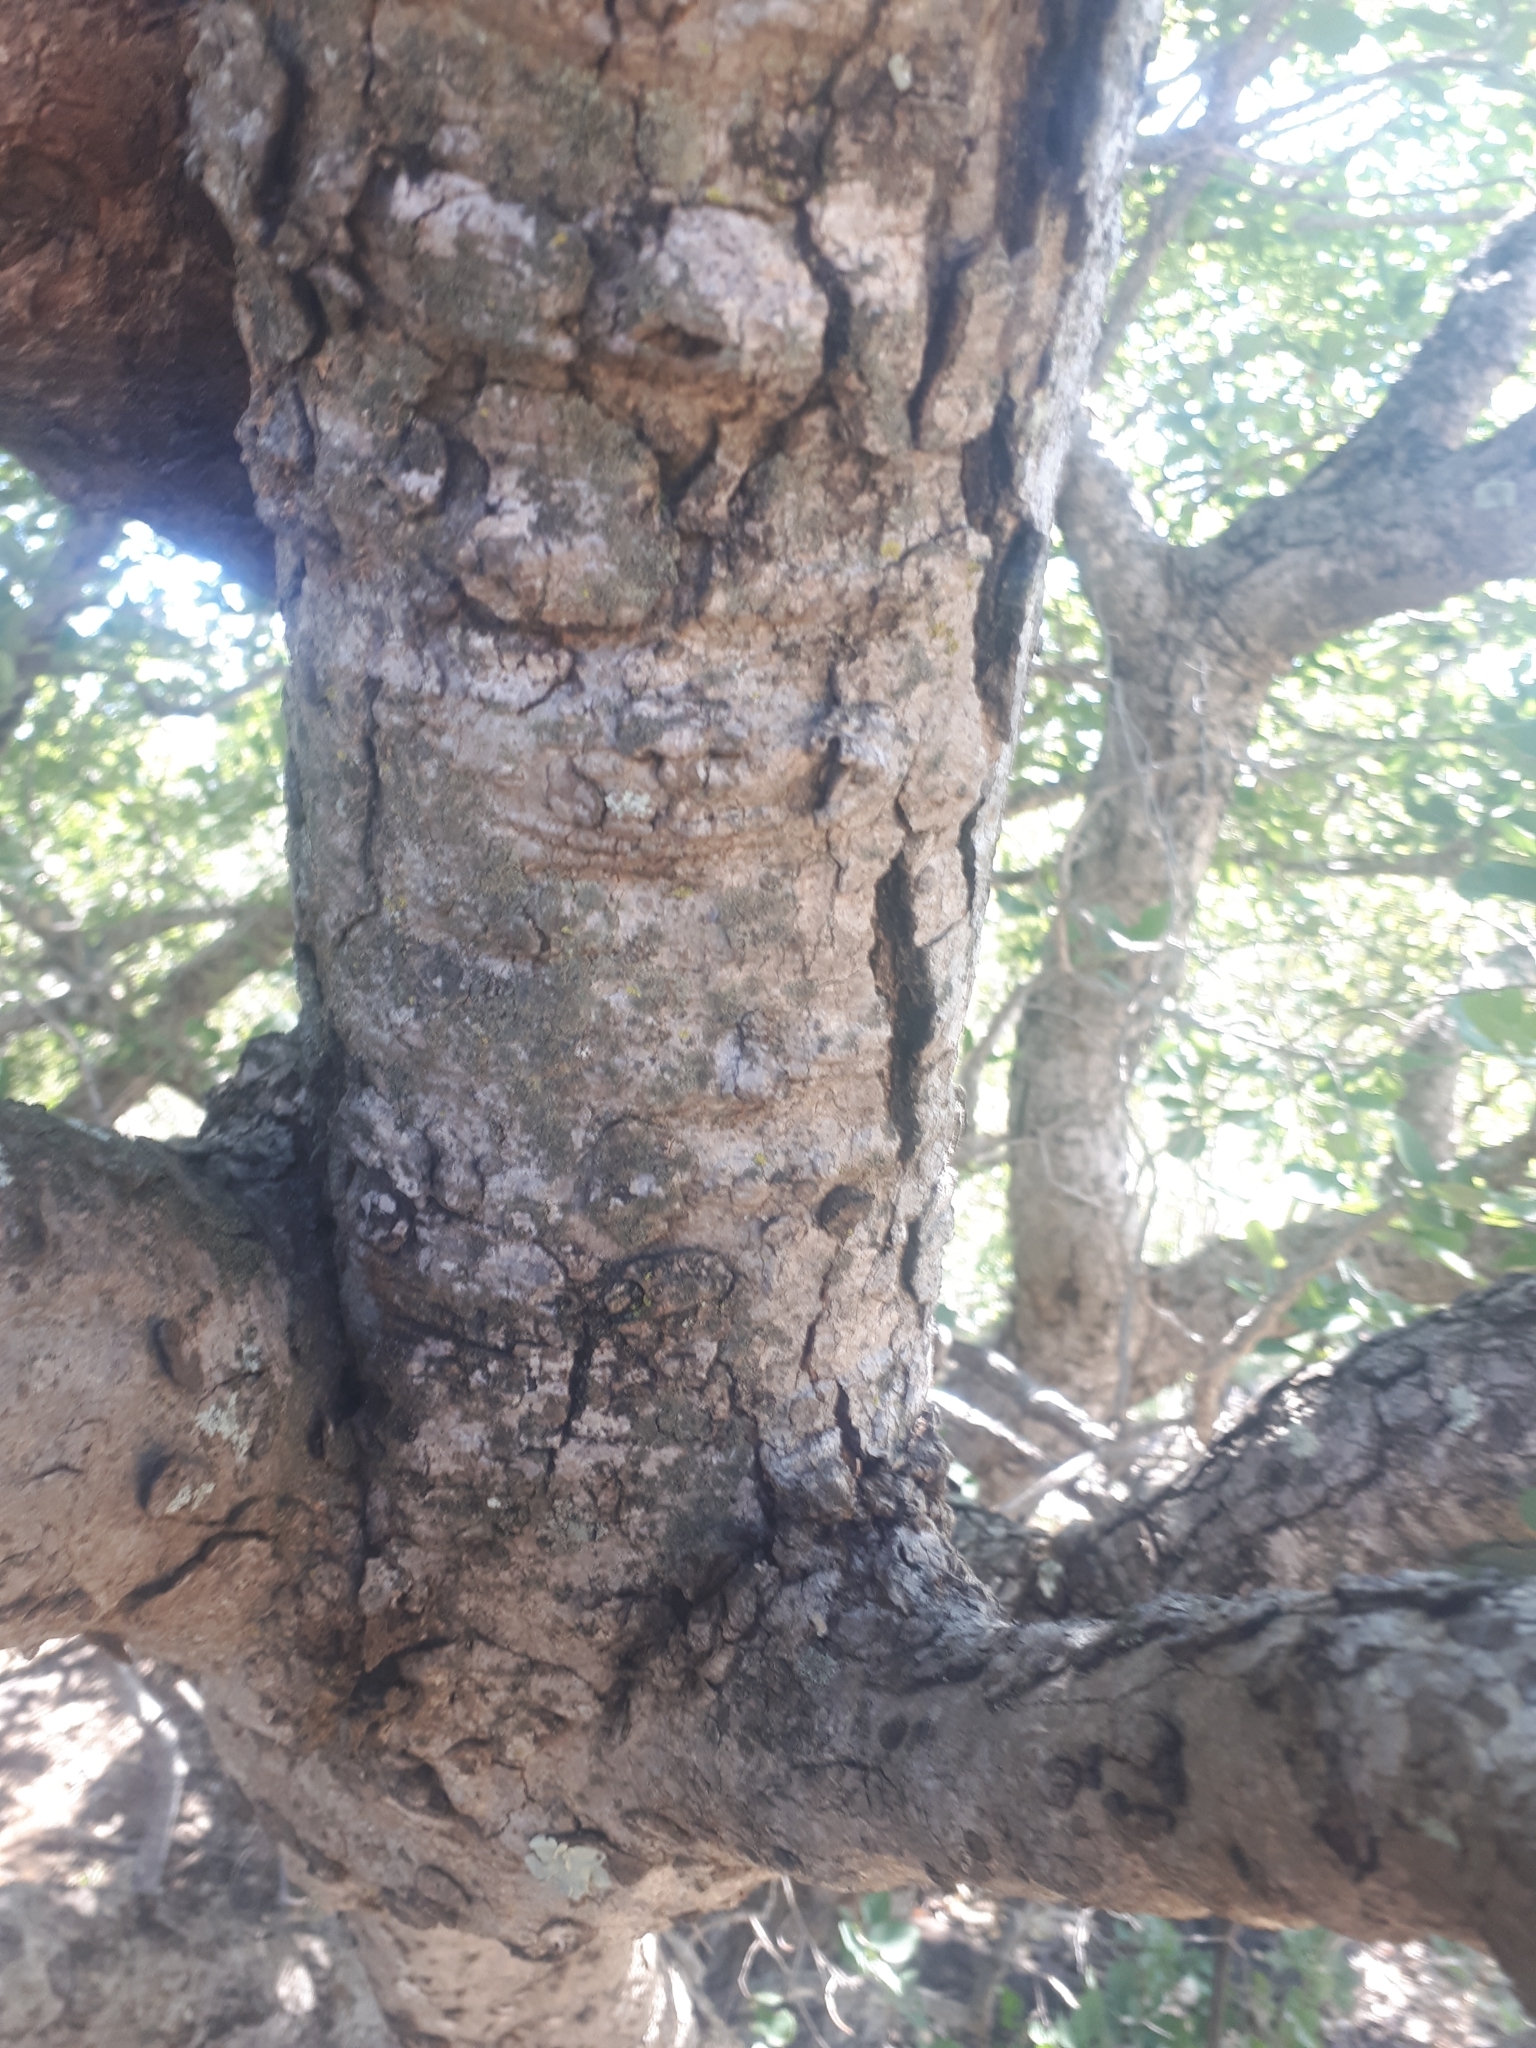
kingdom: Plantae
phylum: Tracheophyta
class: Magnoliopsida
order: Malpighiales
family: Phyllanthaceae
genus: Pseudolachnostylis
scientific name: Pseudolachnostylis maprouneifolia
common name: Kudu berry
